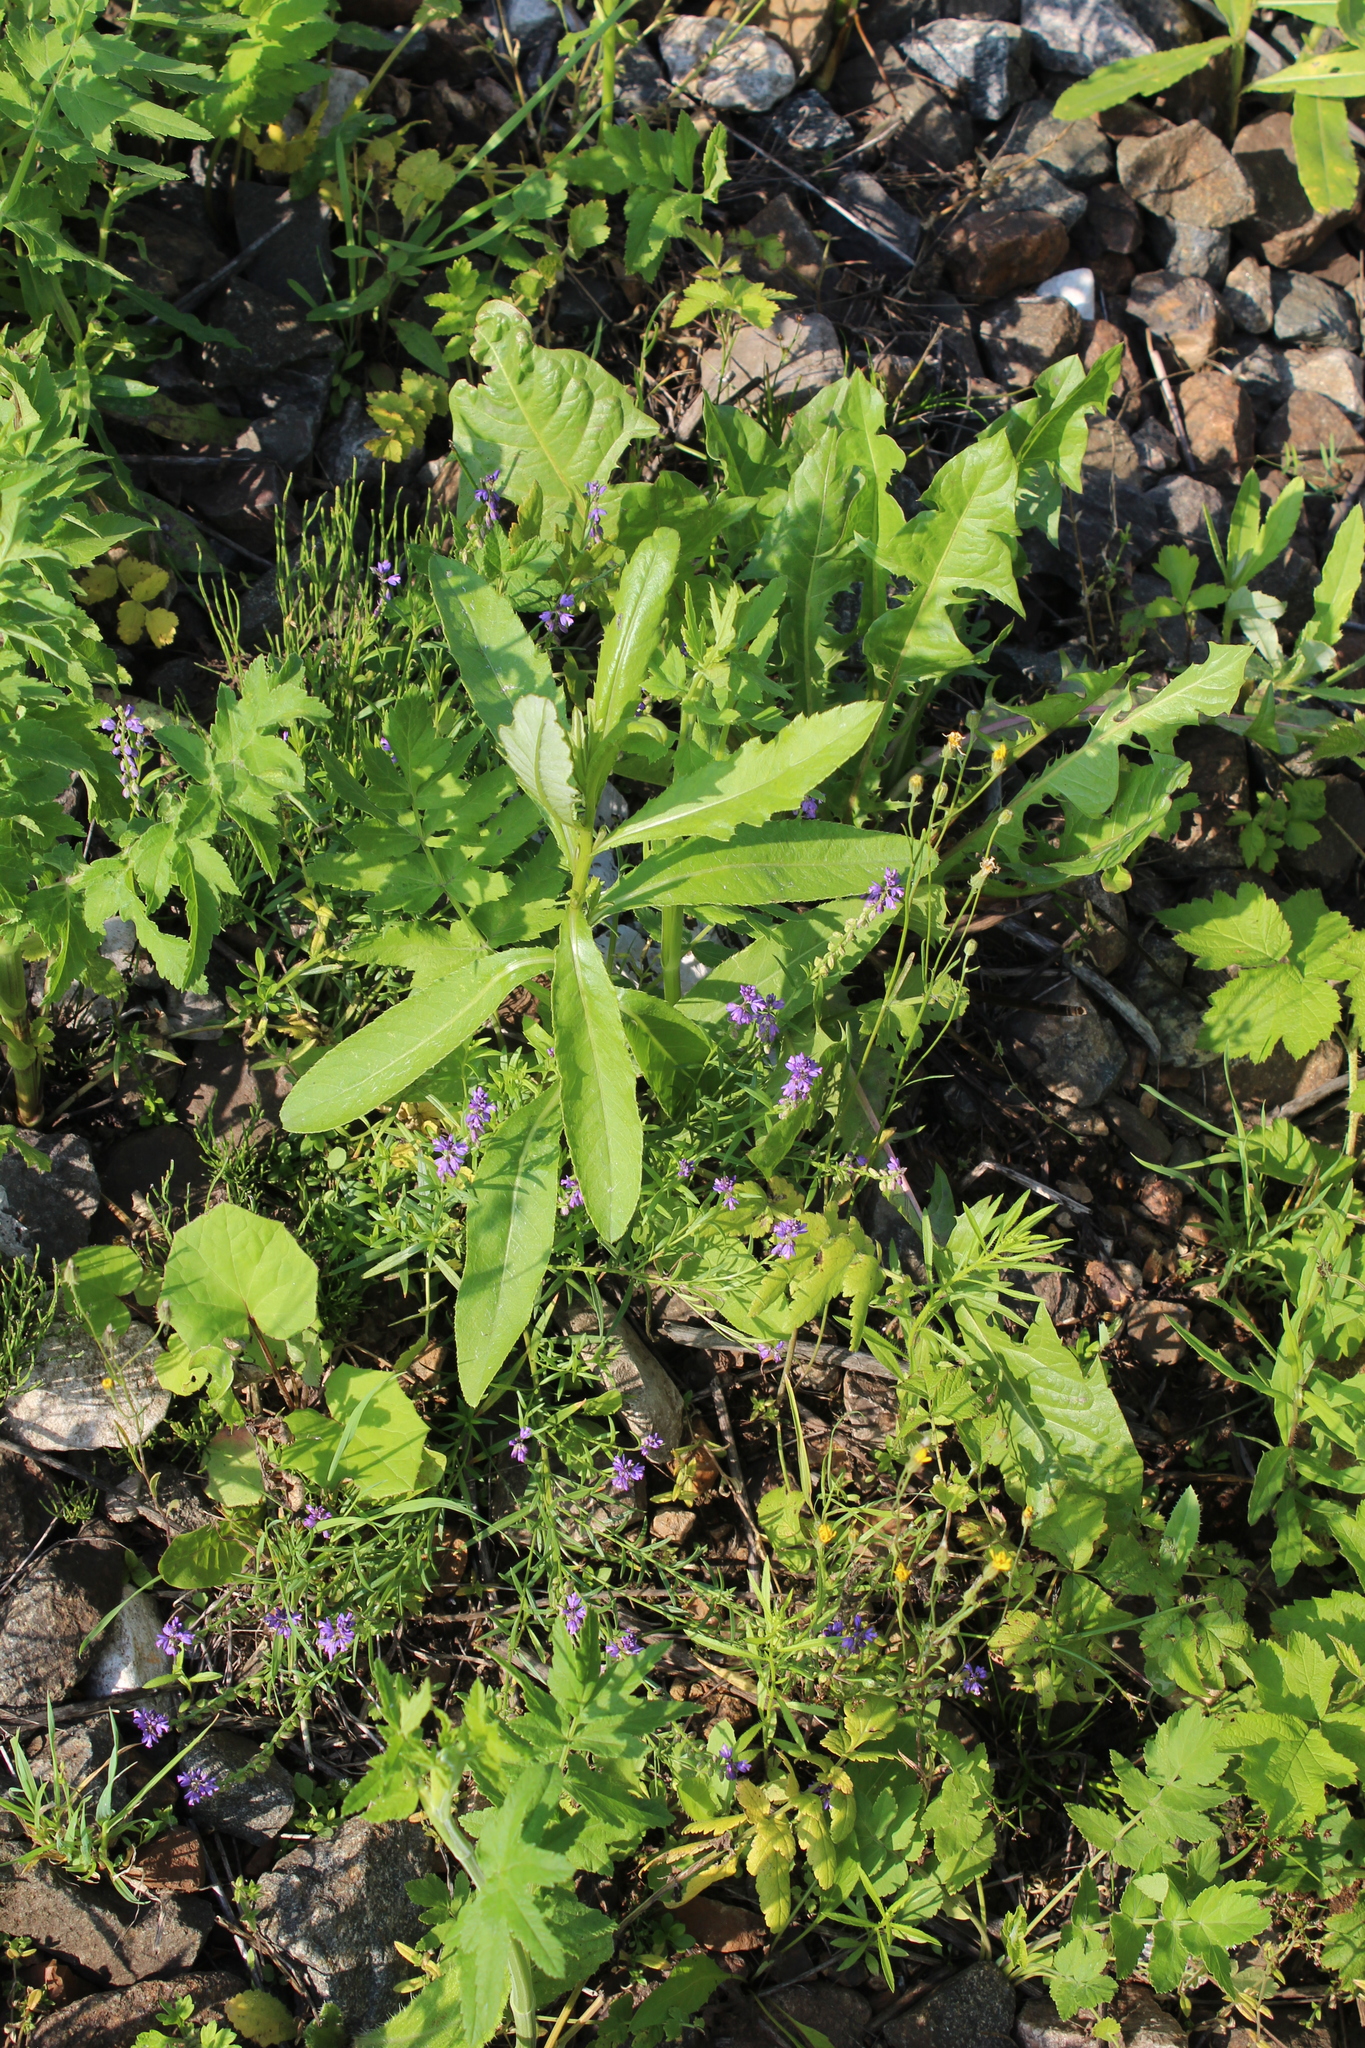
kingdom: Plantae
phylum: Tracheophyta
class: Magnoliopsida
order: Fabales
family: Polygalaceae
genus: Polygala
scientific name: Polygala comosa
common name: Tufted milkwort
